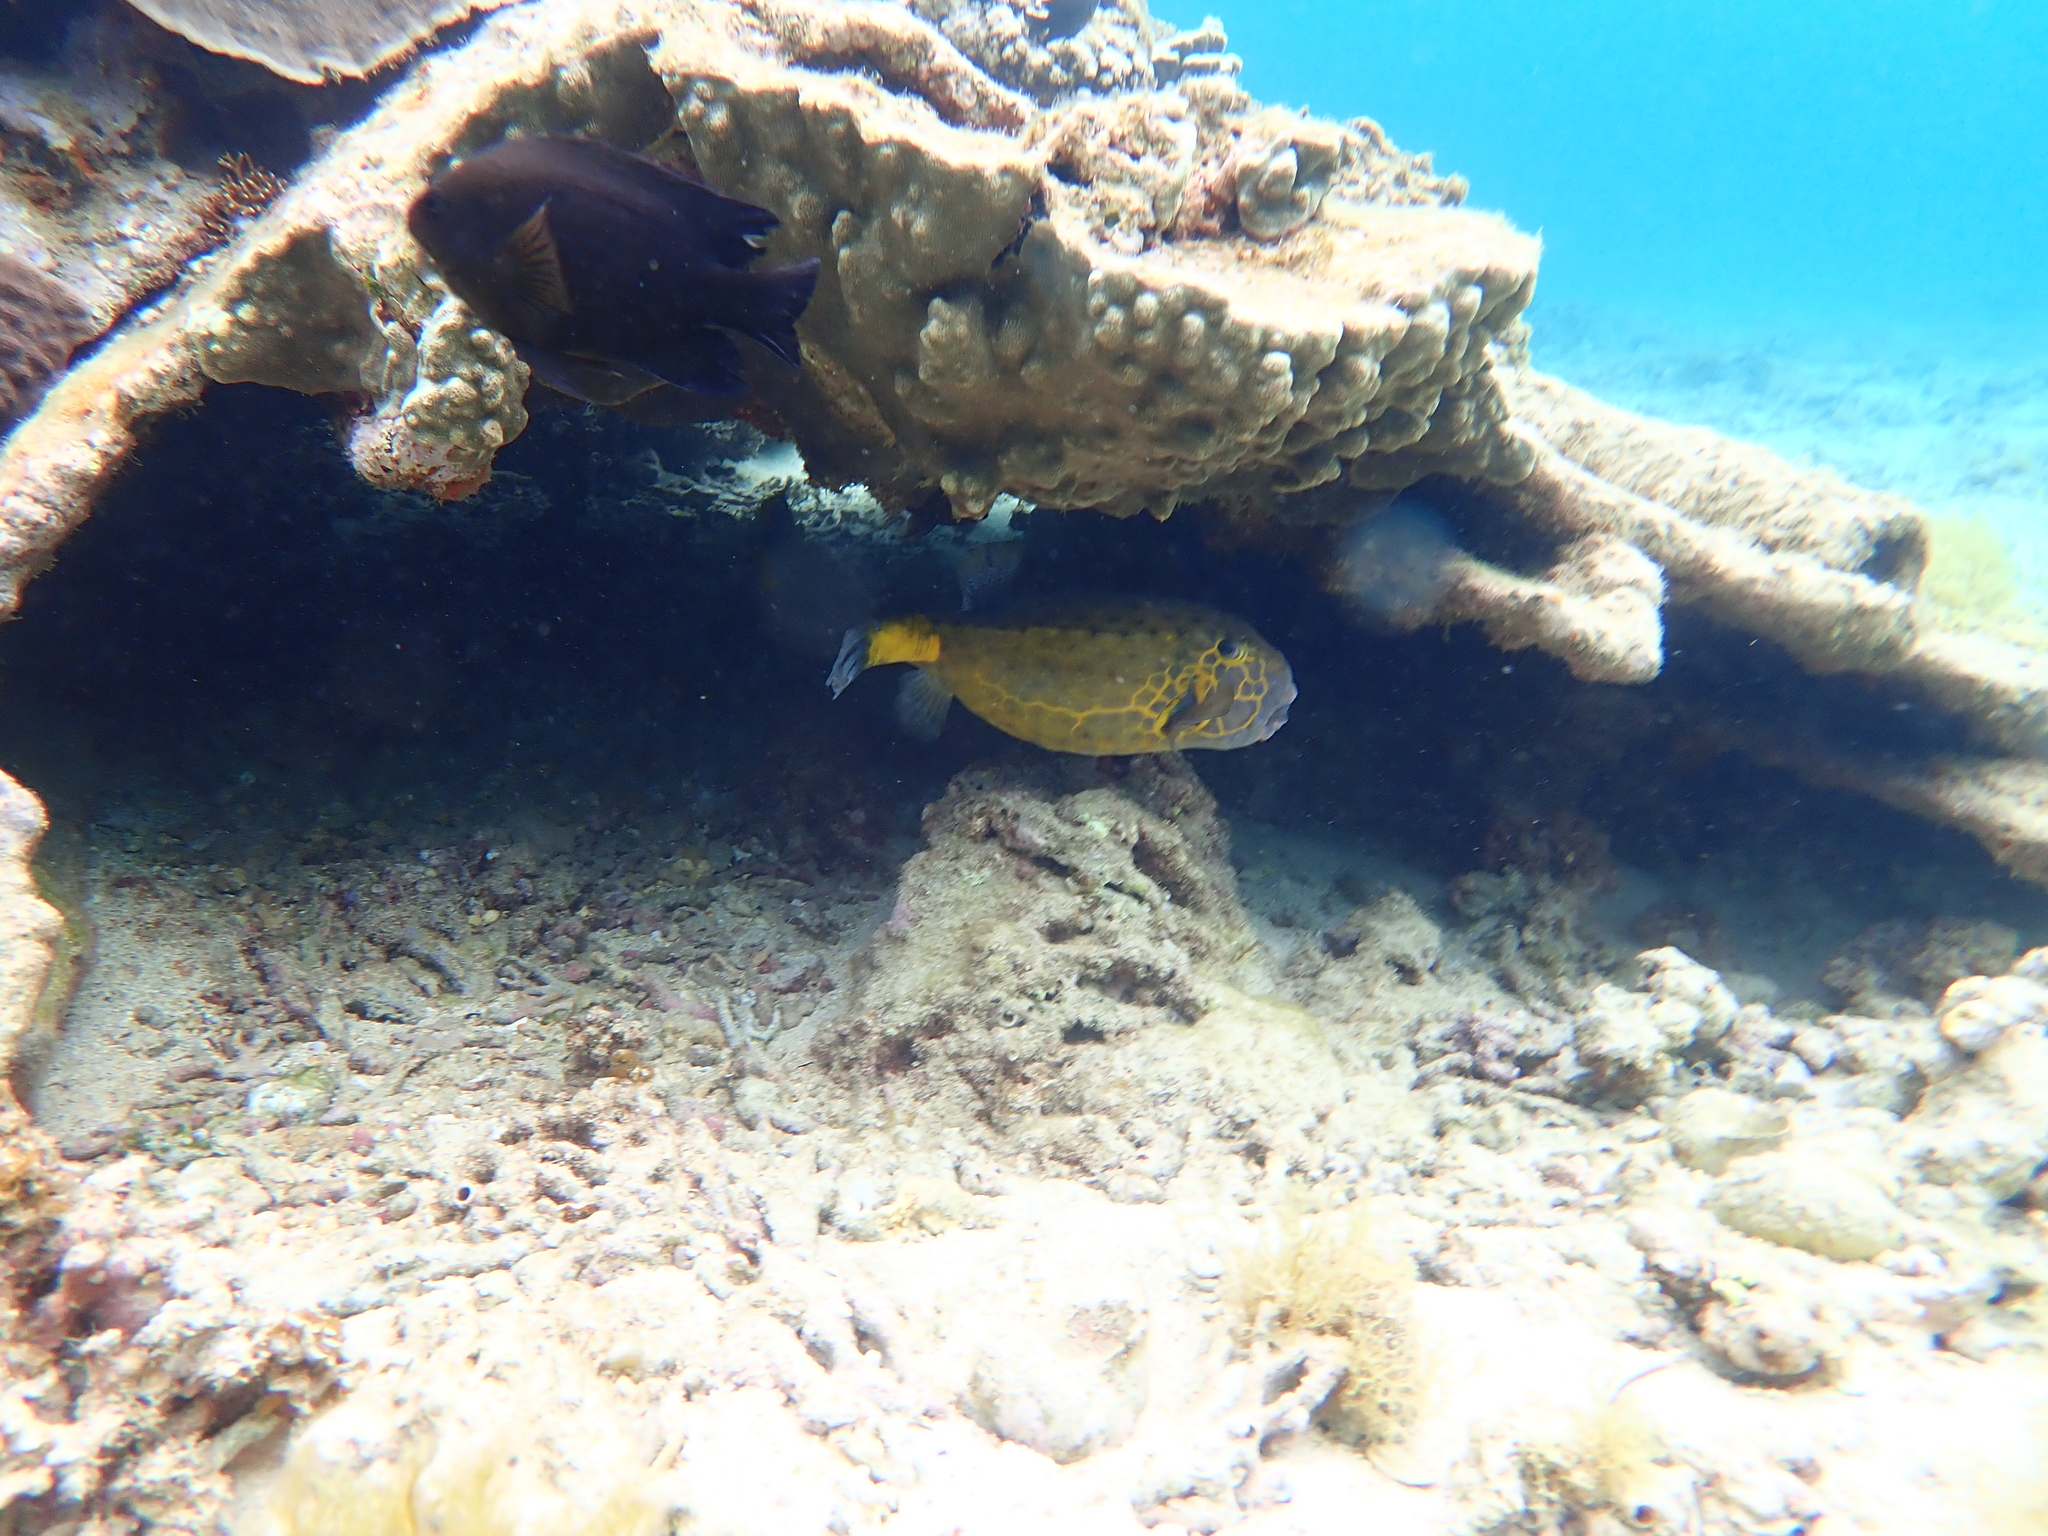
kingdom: Animalia
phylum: Chordata
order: Tetraodontiformes
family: Ostraciidae
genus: Ostracion
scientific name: Ostracion cubicus
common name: Cube trunkfish
